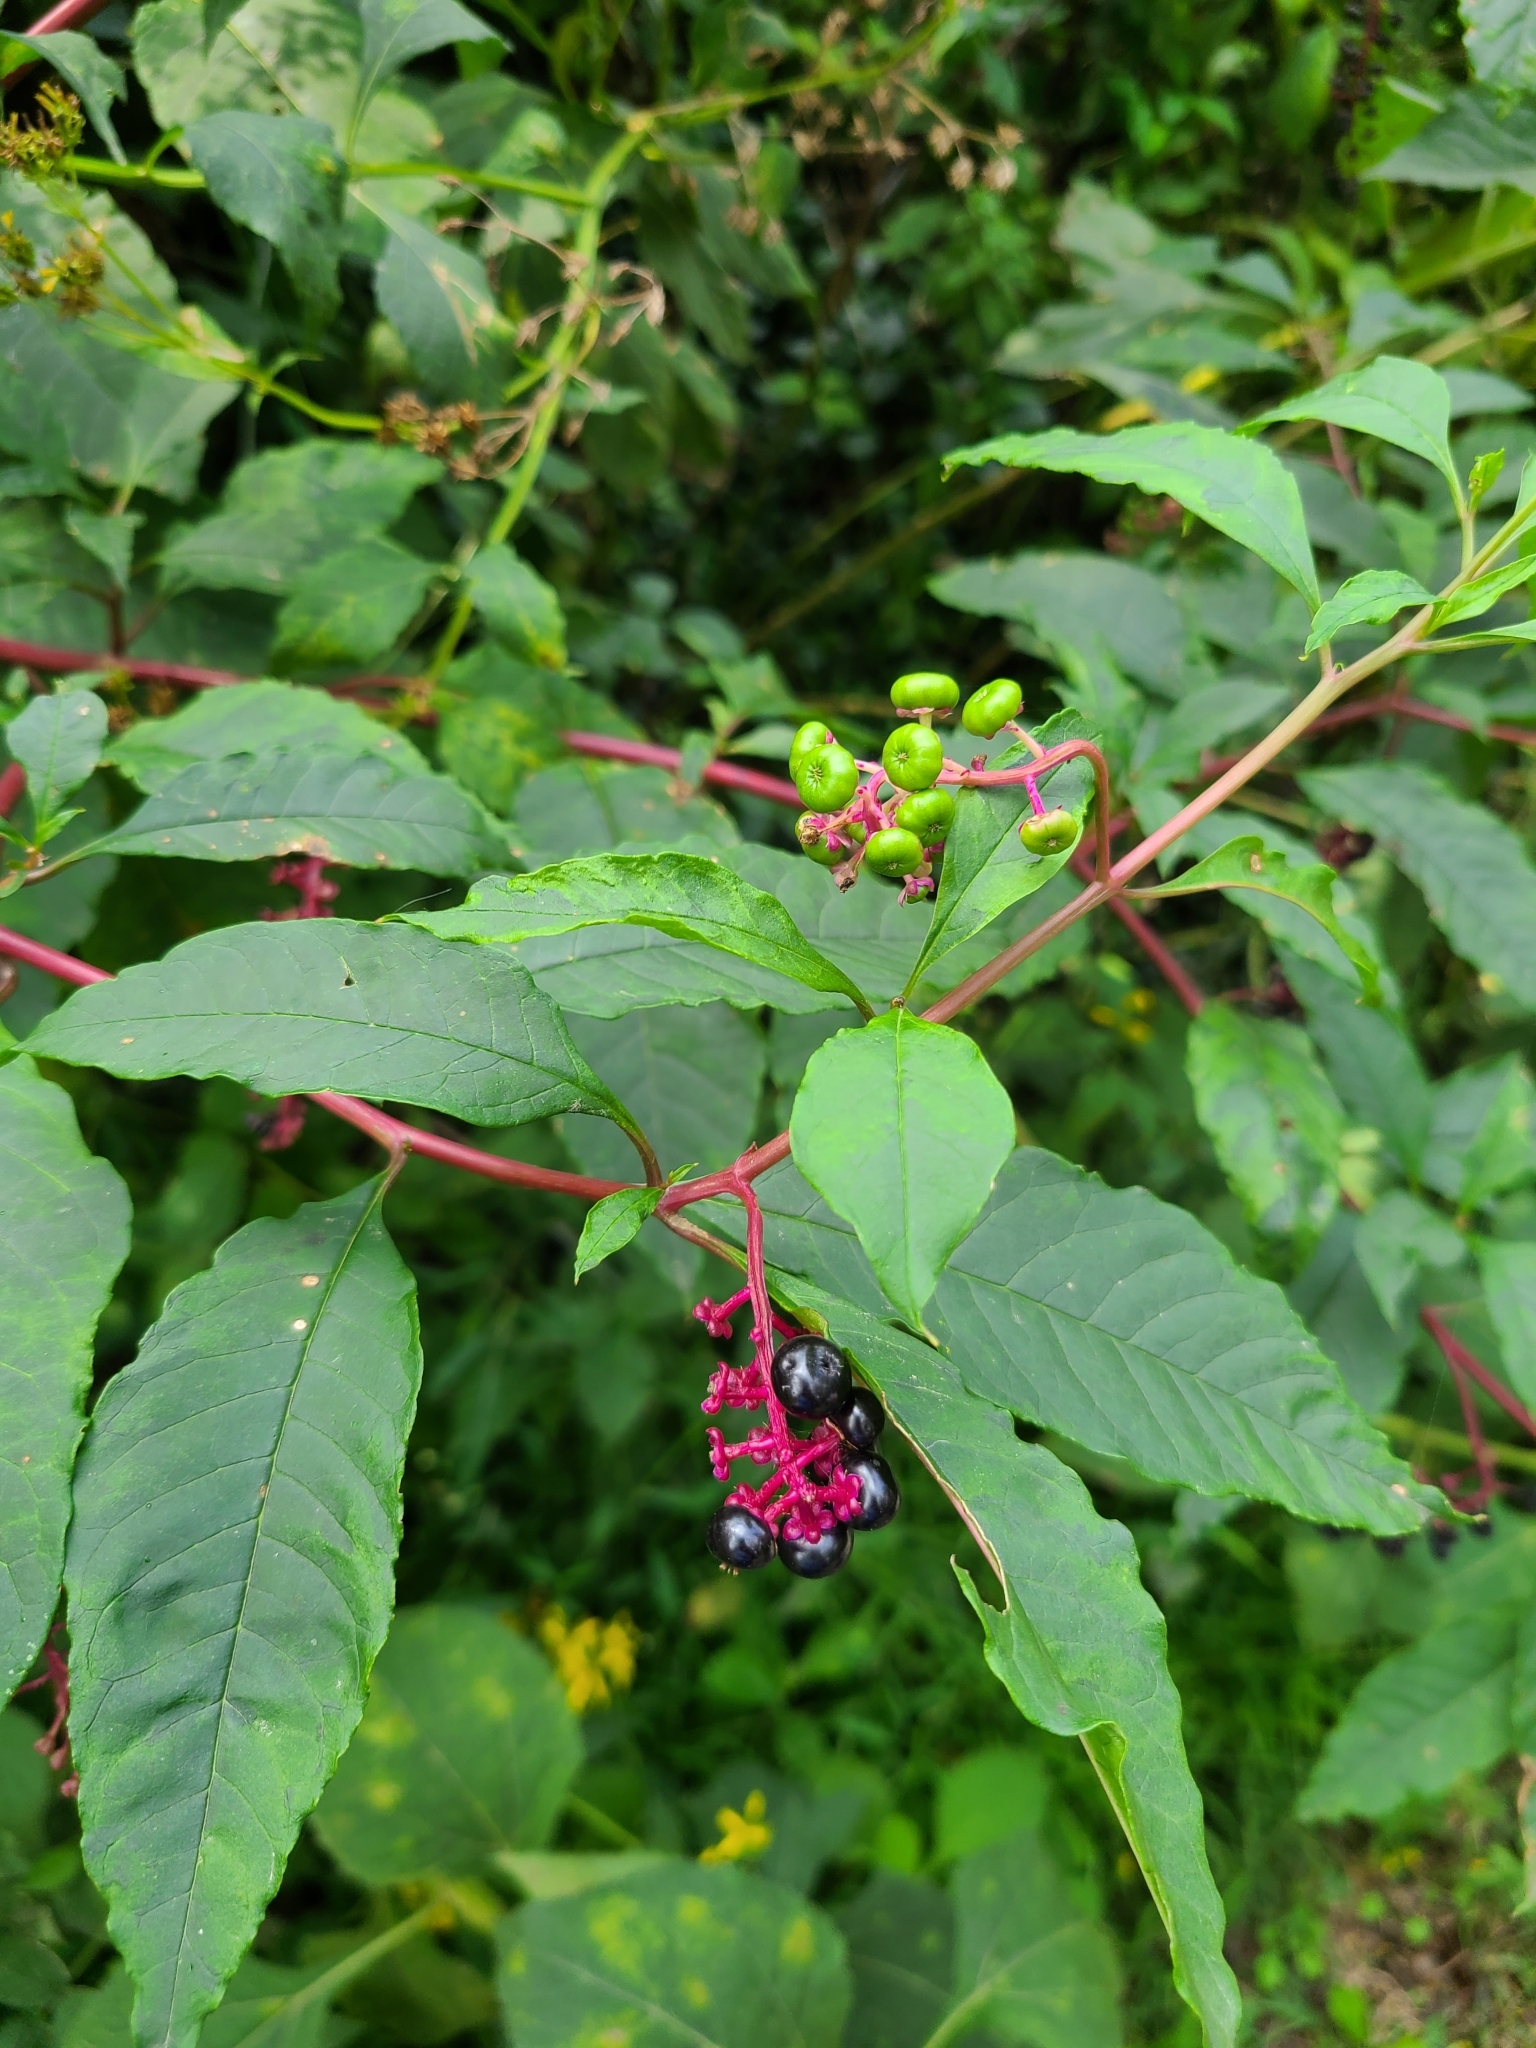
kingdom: Plantae
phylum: Tracheophyta
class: Magnoliopsida
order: Caryophyllales
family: Phytolaccaceae
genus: Phytolacca
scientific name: Phytolacca americana
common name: American pokeweed
